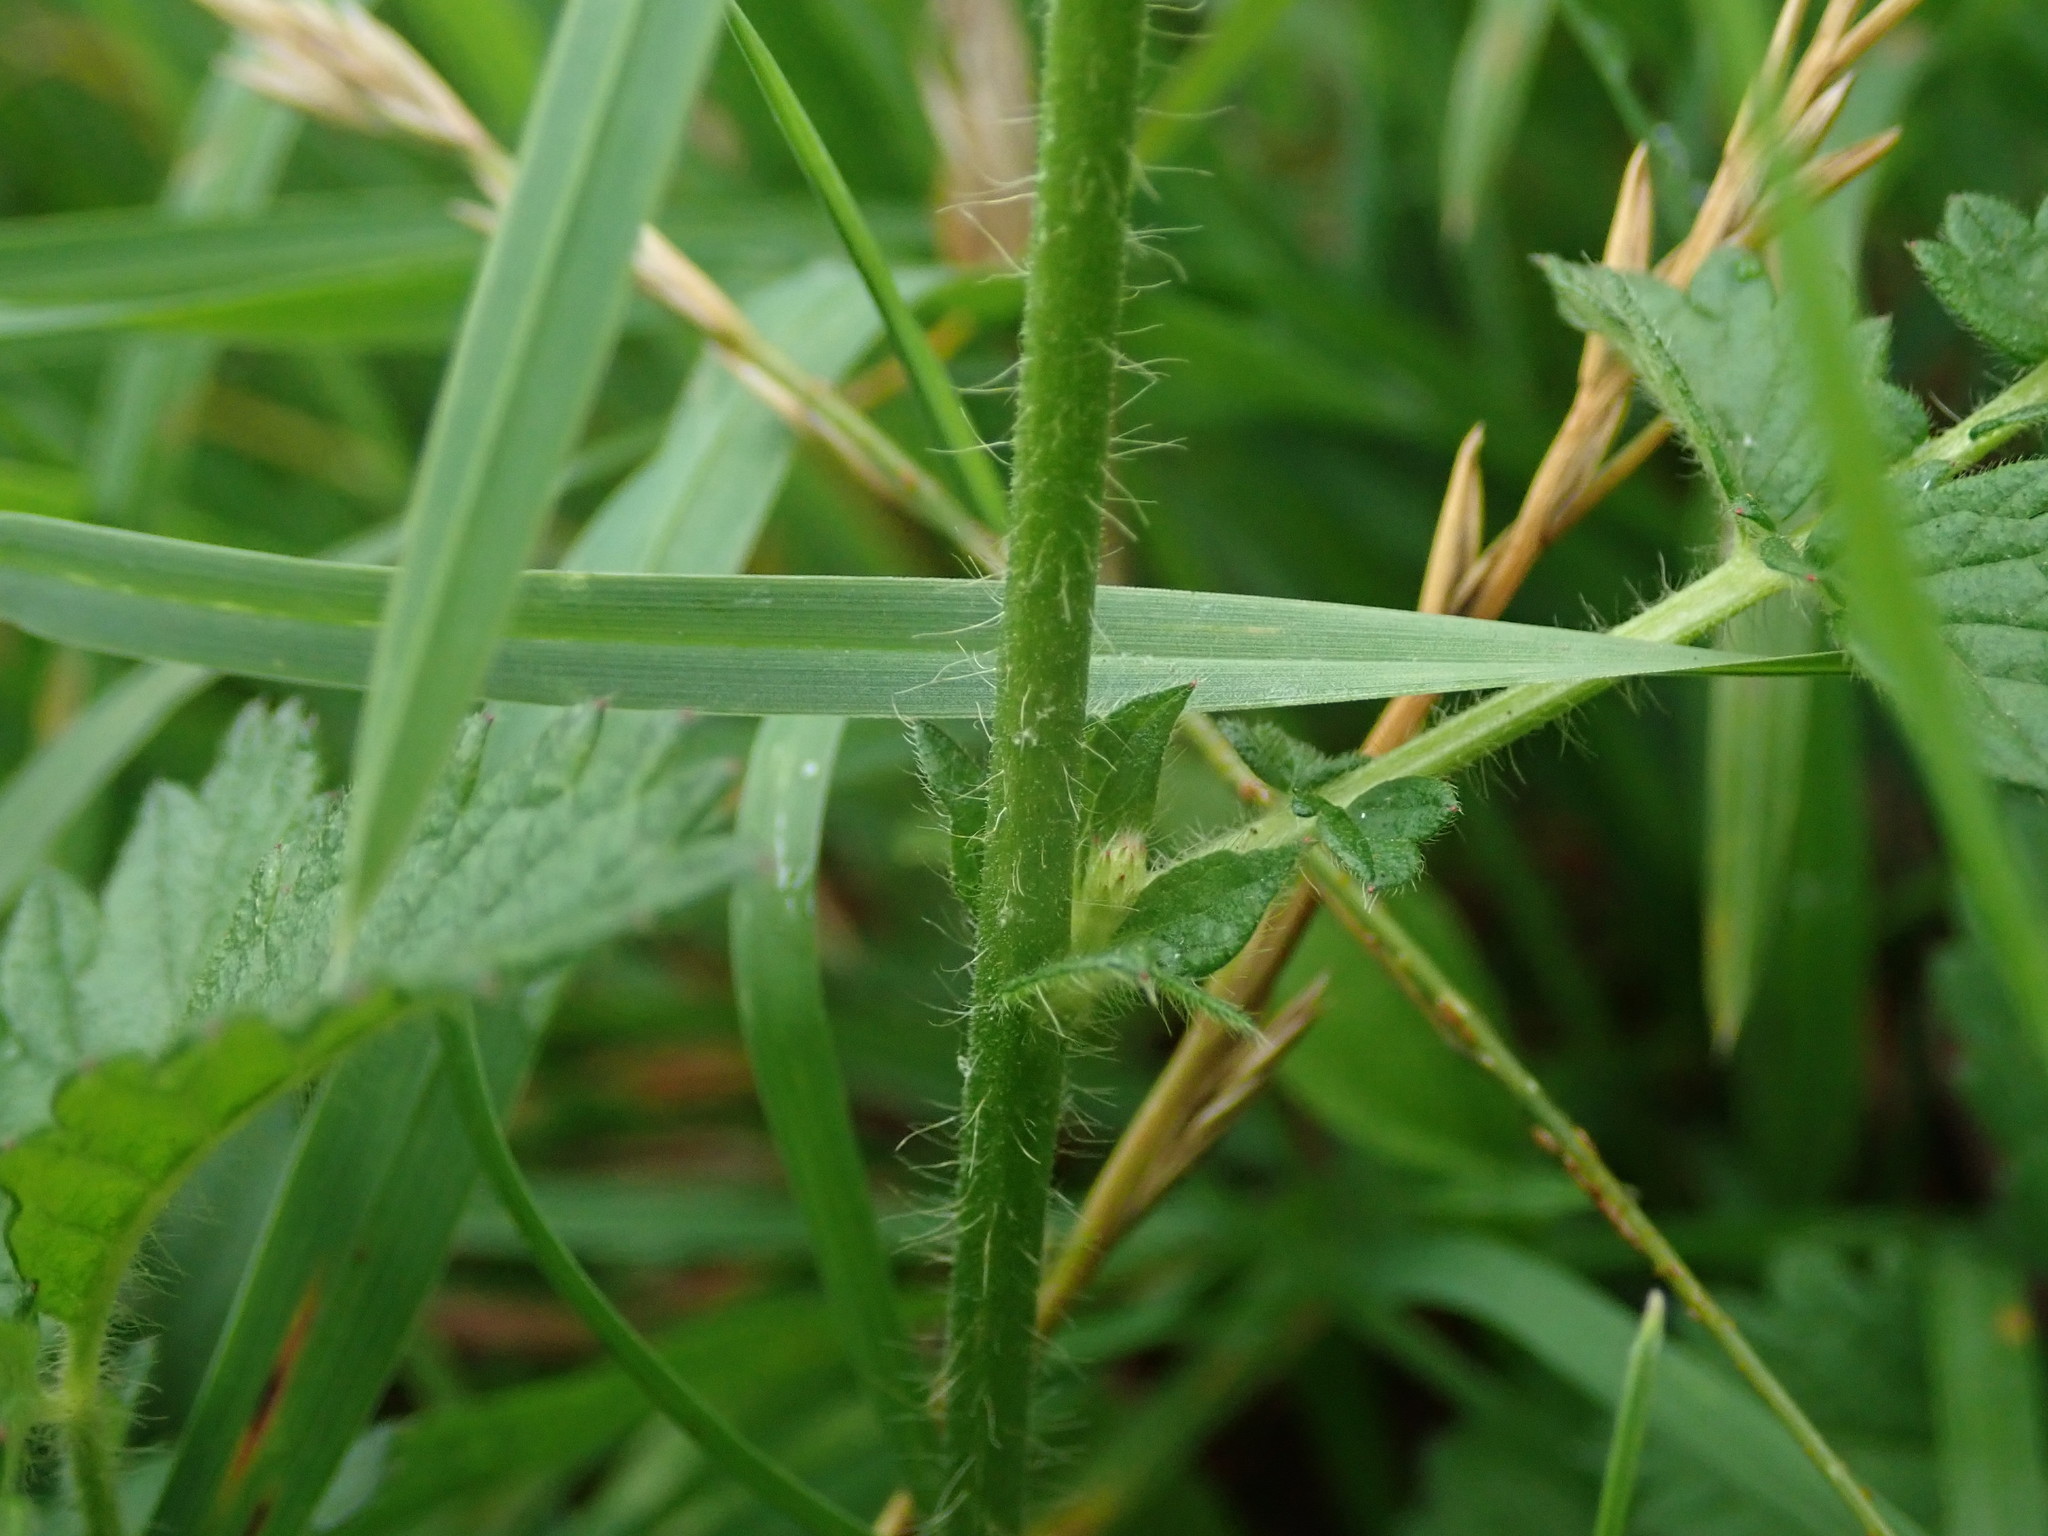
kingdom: Plantae
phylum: Tracheophyta
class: Magnoliopsida
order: Rosales
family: Rosaceae
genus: Agrimonia
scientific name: Agrimonia eupatoria
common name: Agrimony
